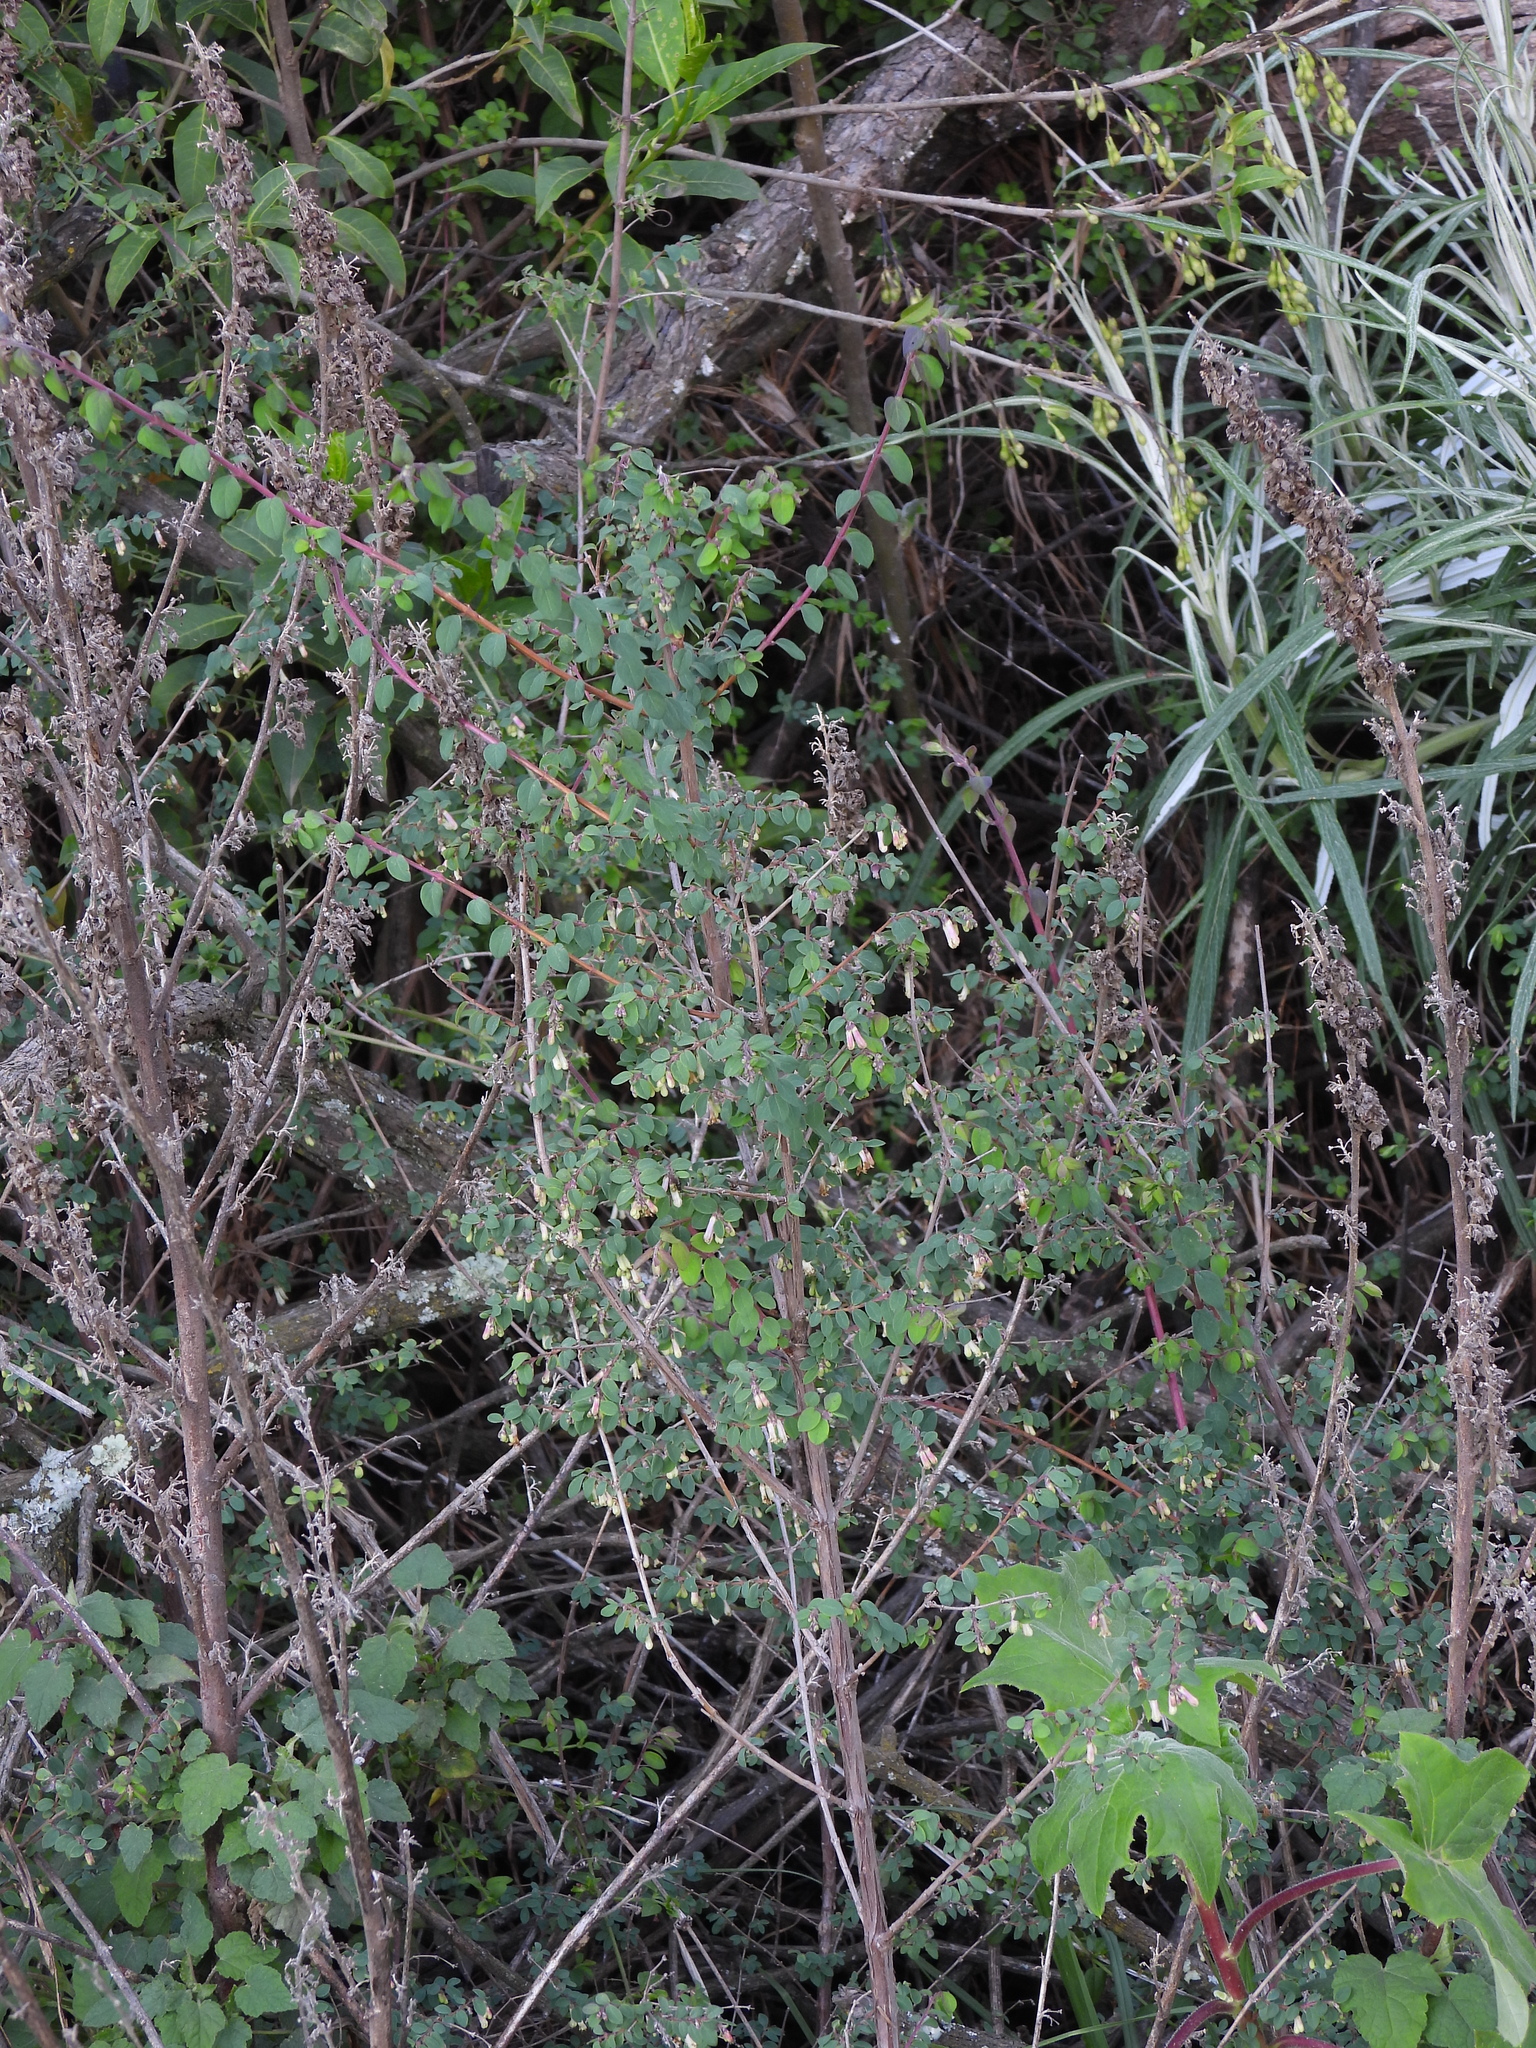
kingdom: Plantae
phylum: Tracheophyta
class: Magnoliopsida
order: Dipsacales
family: Caprifoliaceae
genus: Symphoricarpos
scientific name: Symphoricarpos microphyllus
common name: Small-leaved snowberry
